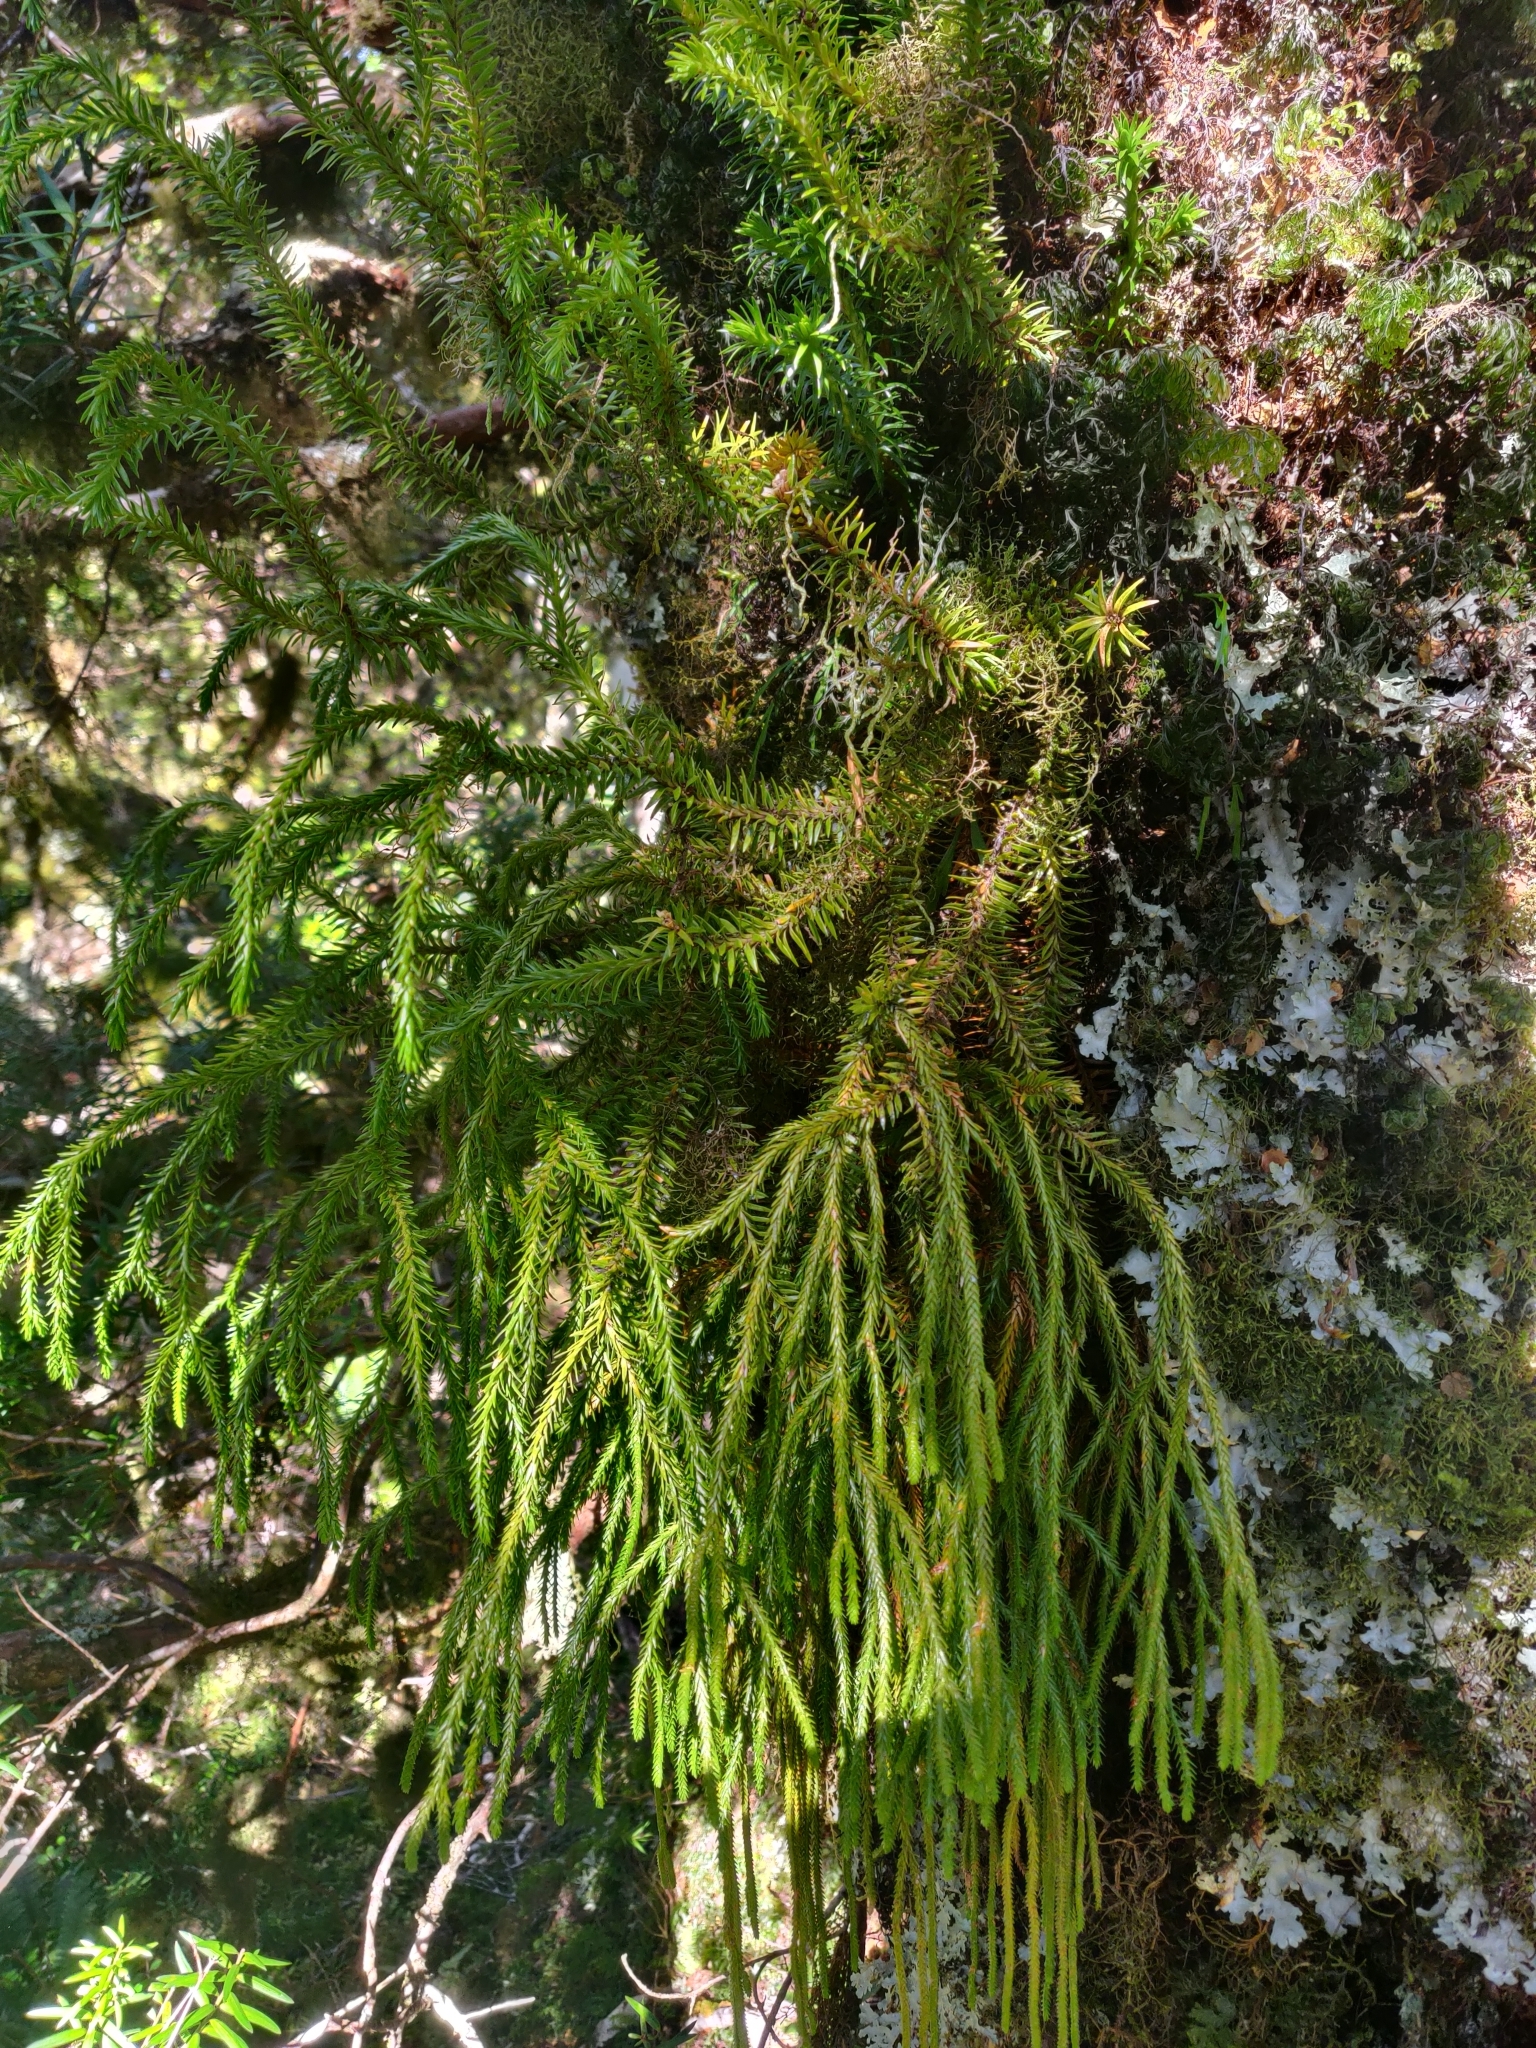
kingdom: Plantae
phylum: Tracheophyta
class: Lycopodiopsida
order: Lycopodiales
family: Lycopodiaceae
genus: Phlegmariurus
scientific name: Phlegmariurus varius
